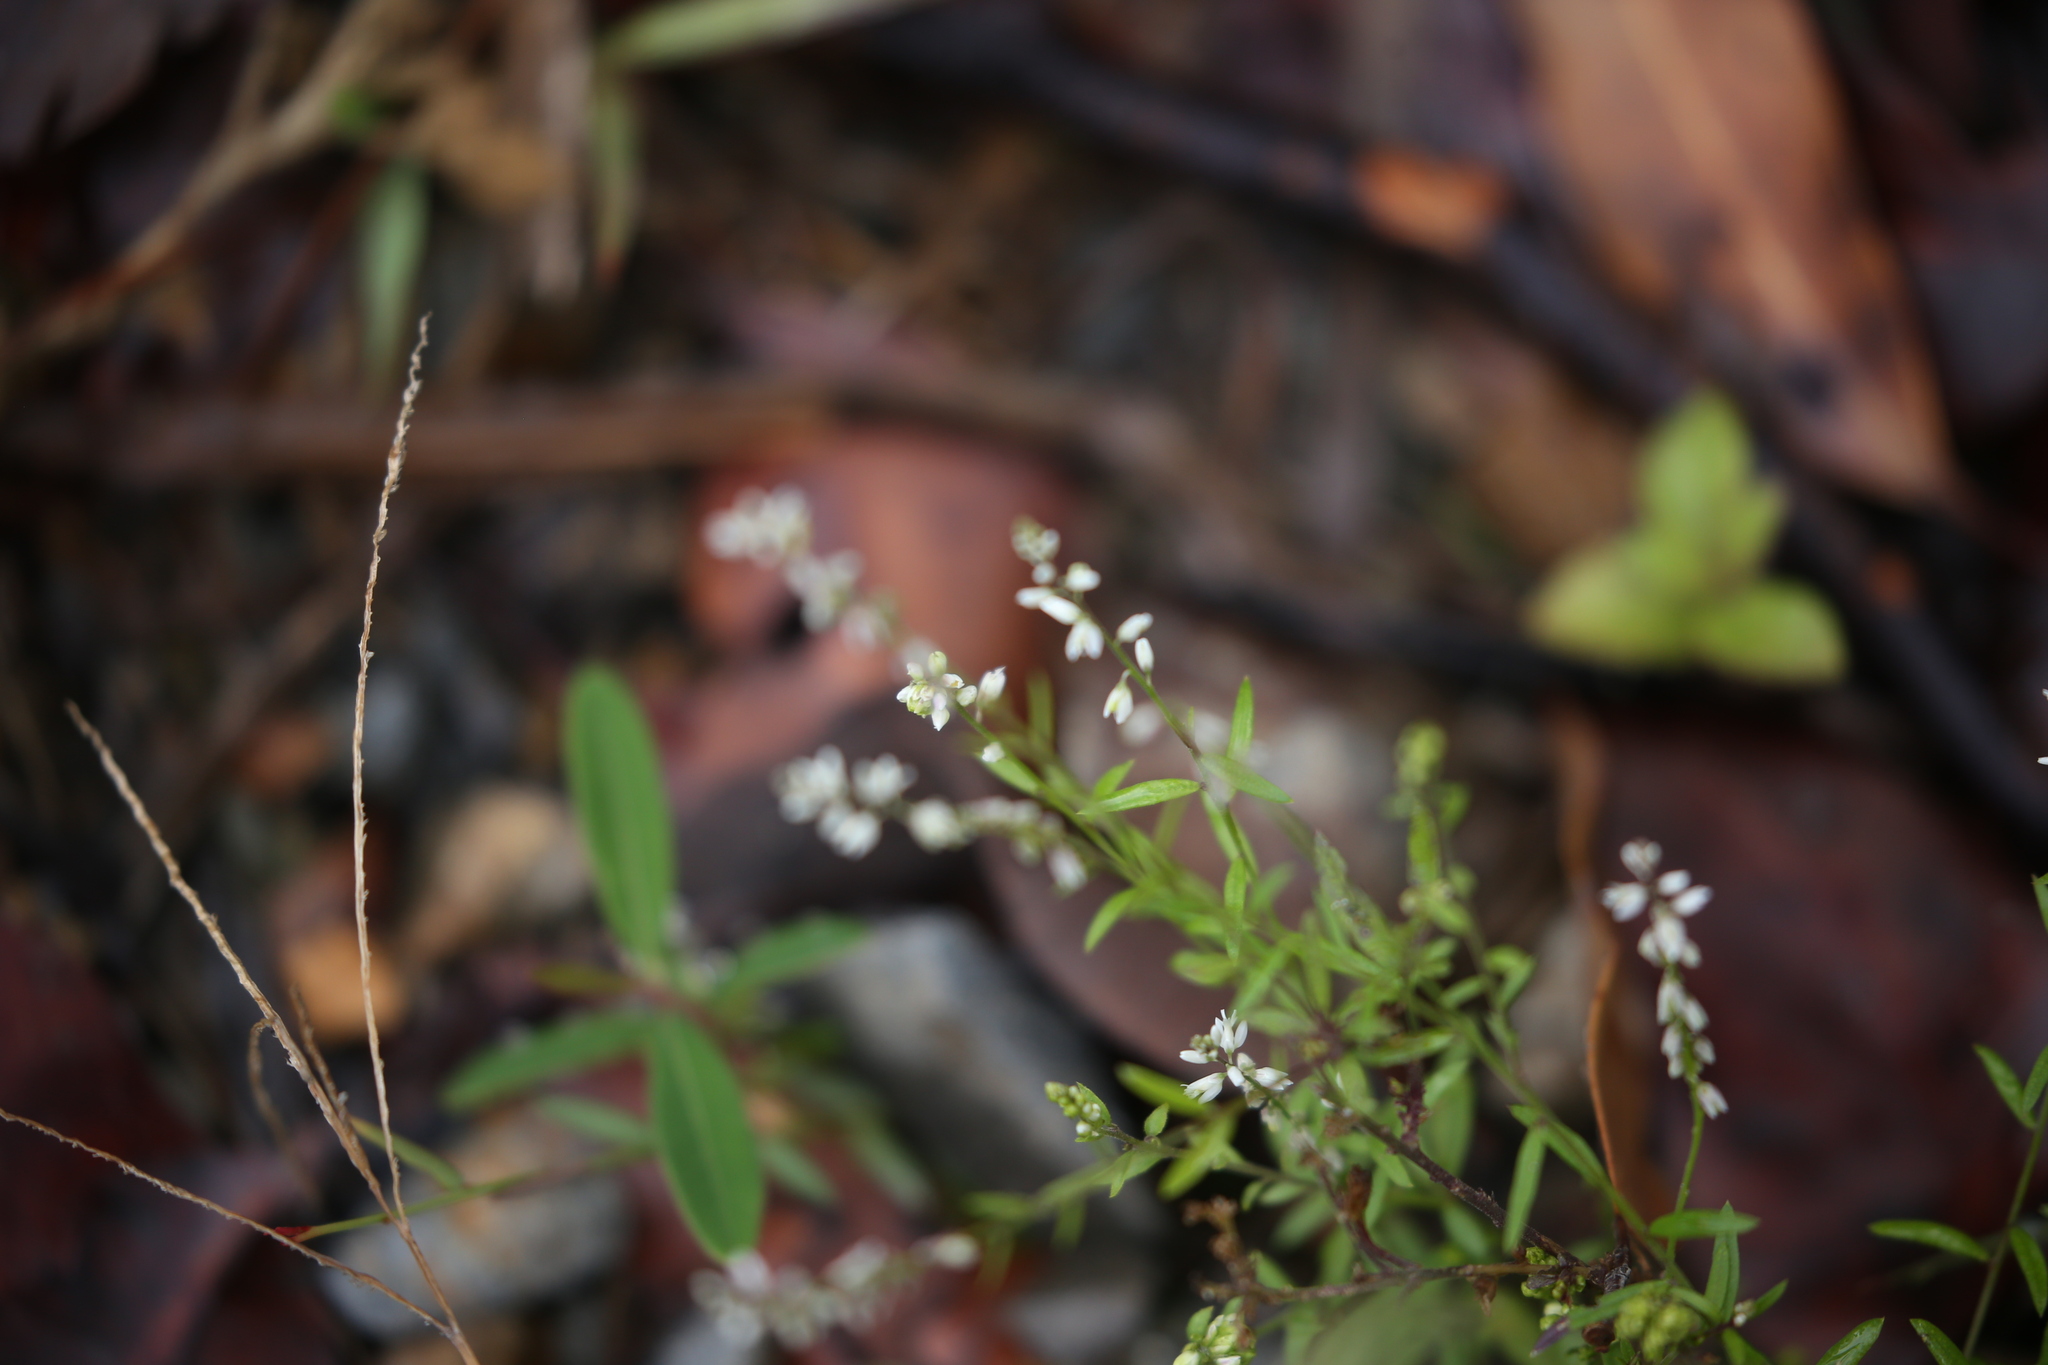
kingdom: Plantae
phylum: Tracheophyta
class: Magnoliopsida
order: Fabales
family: Polygalaceae
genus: Polygala
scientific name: Polygala paniculata
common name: Orosne
